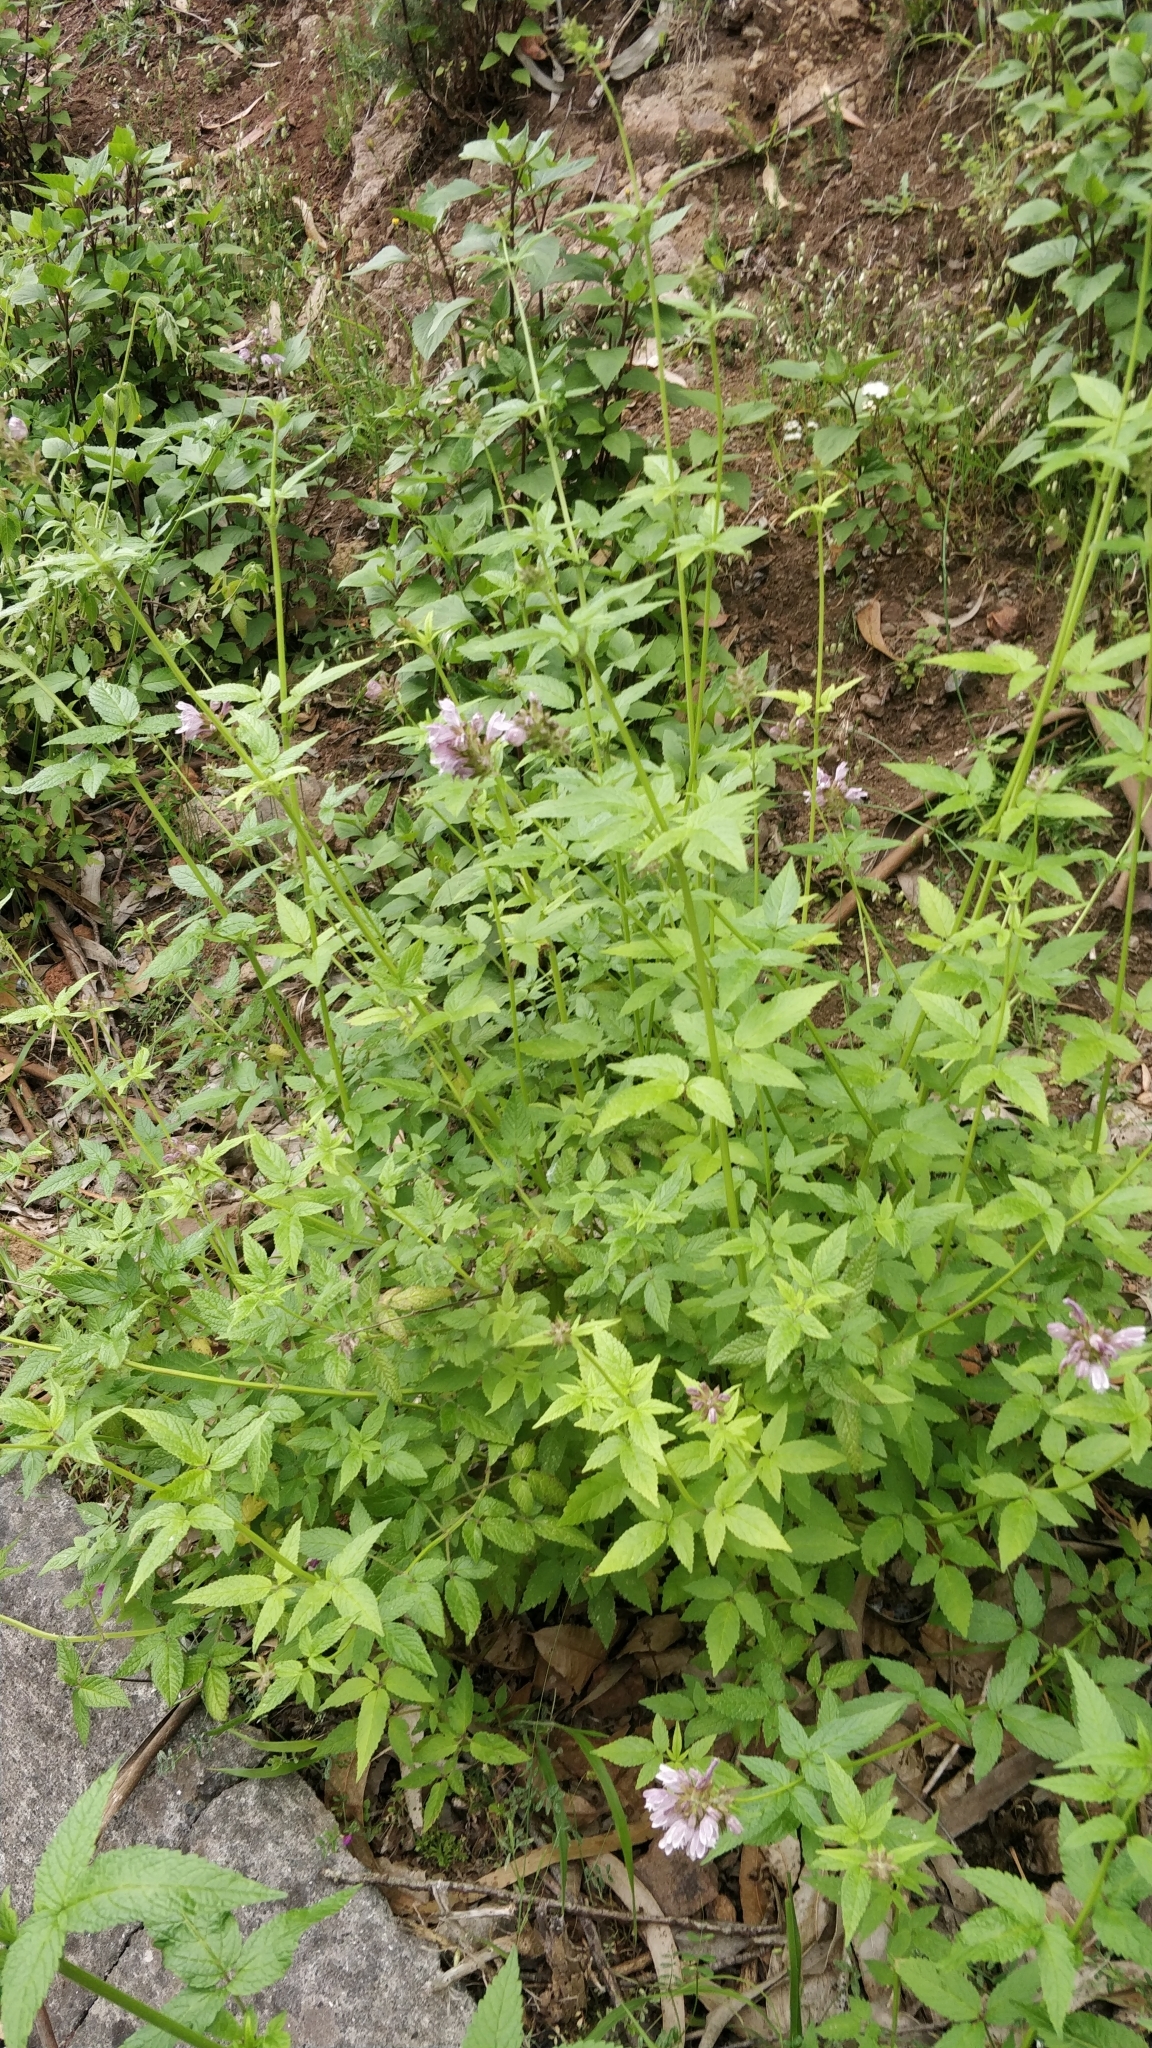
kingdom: Plantae
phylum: Tracheophyta
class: Magnoliopsida
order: Lamiales
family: Lamiaceae
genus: Cedronella
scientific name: Cedronella canariensis
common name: Canary islands balm
